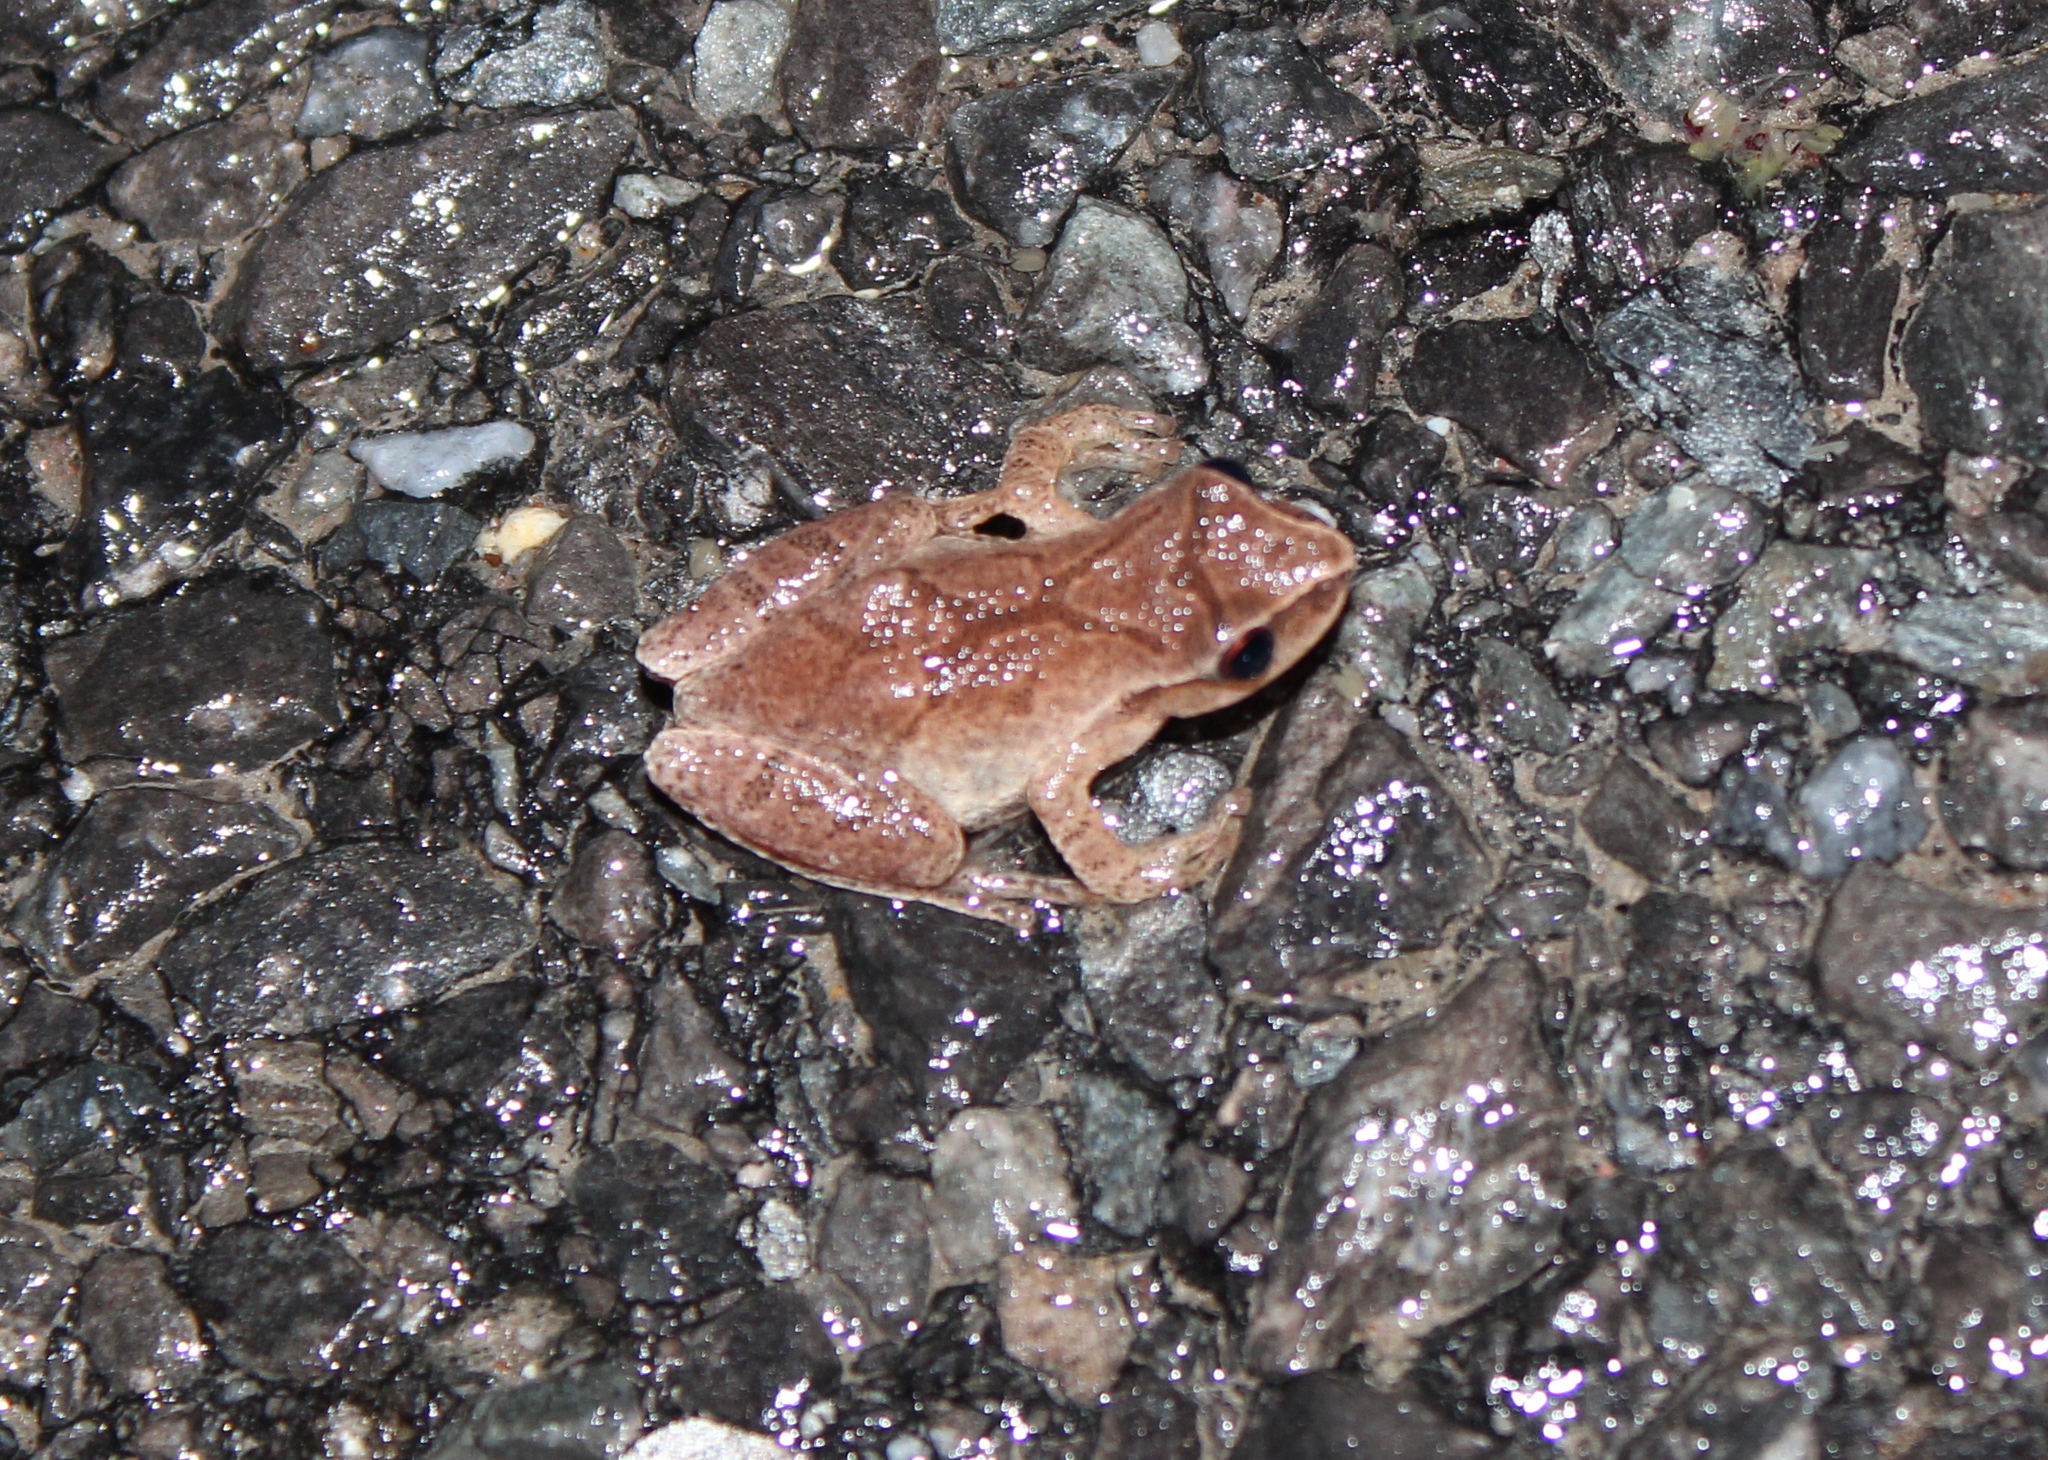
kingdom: Animalia
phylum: Chordata
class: Amphibia
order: Anura
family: Hylidae
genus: Pseudacris
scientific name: Pseudacris crucifer
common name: Spring peeper
